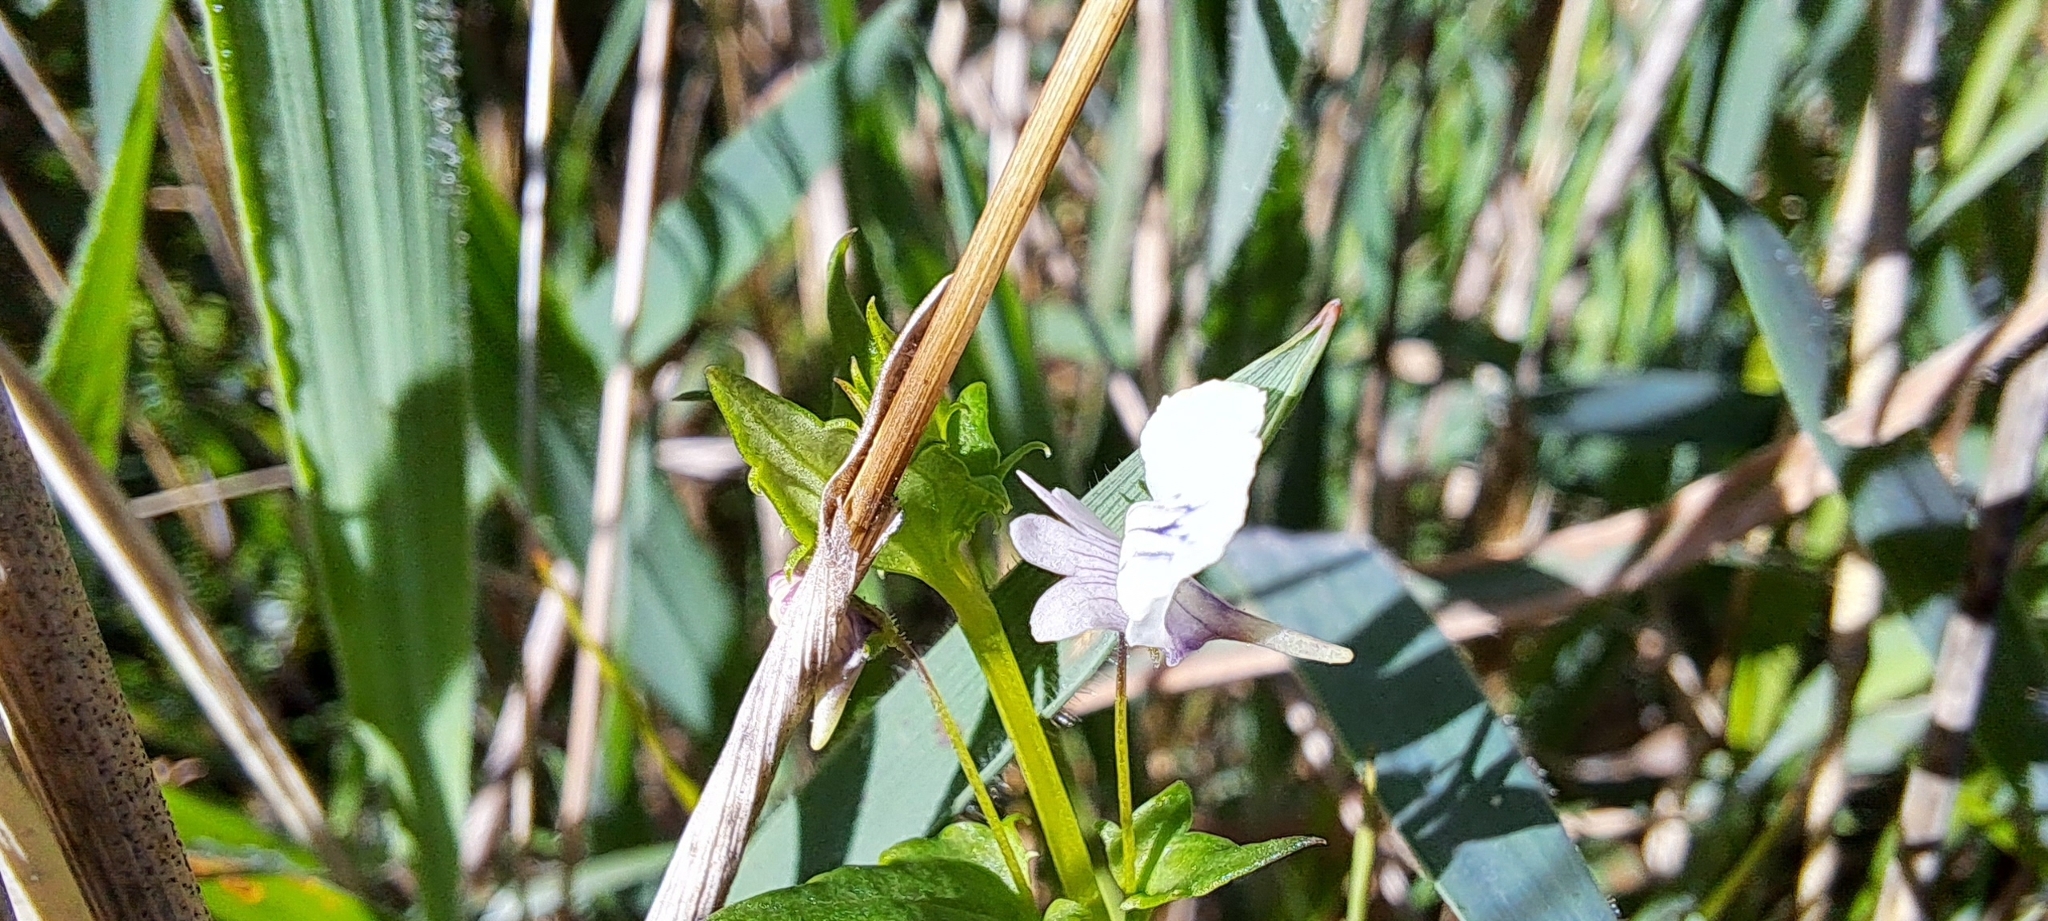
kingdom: Plantae
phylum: Tracheophyta
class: Magnoliopsida
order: Lamiales
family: Scrophulariaceae
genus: Nemesia
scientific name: Nemesia diffusa
